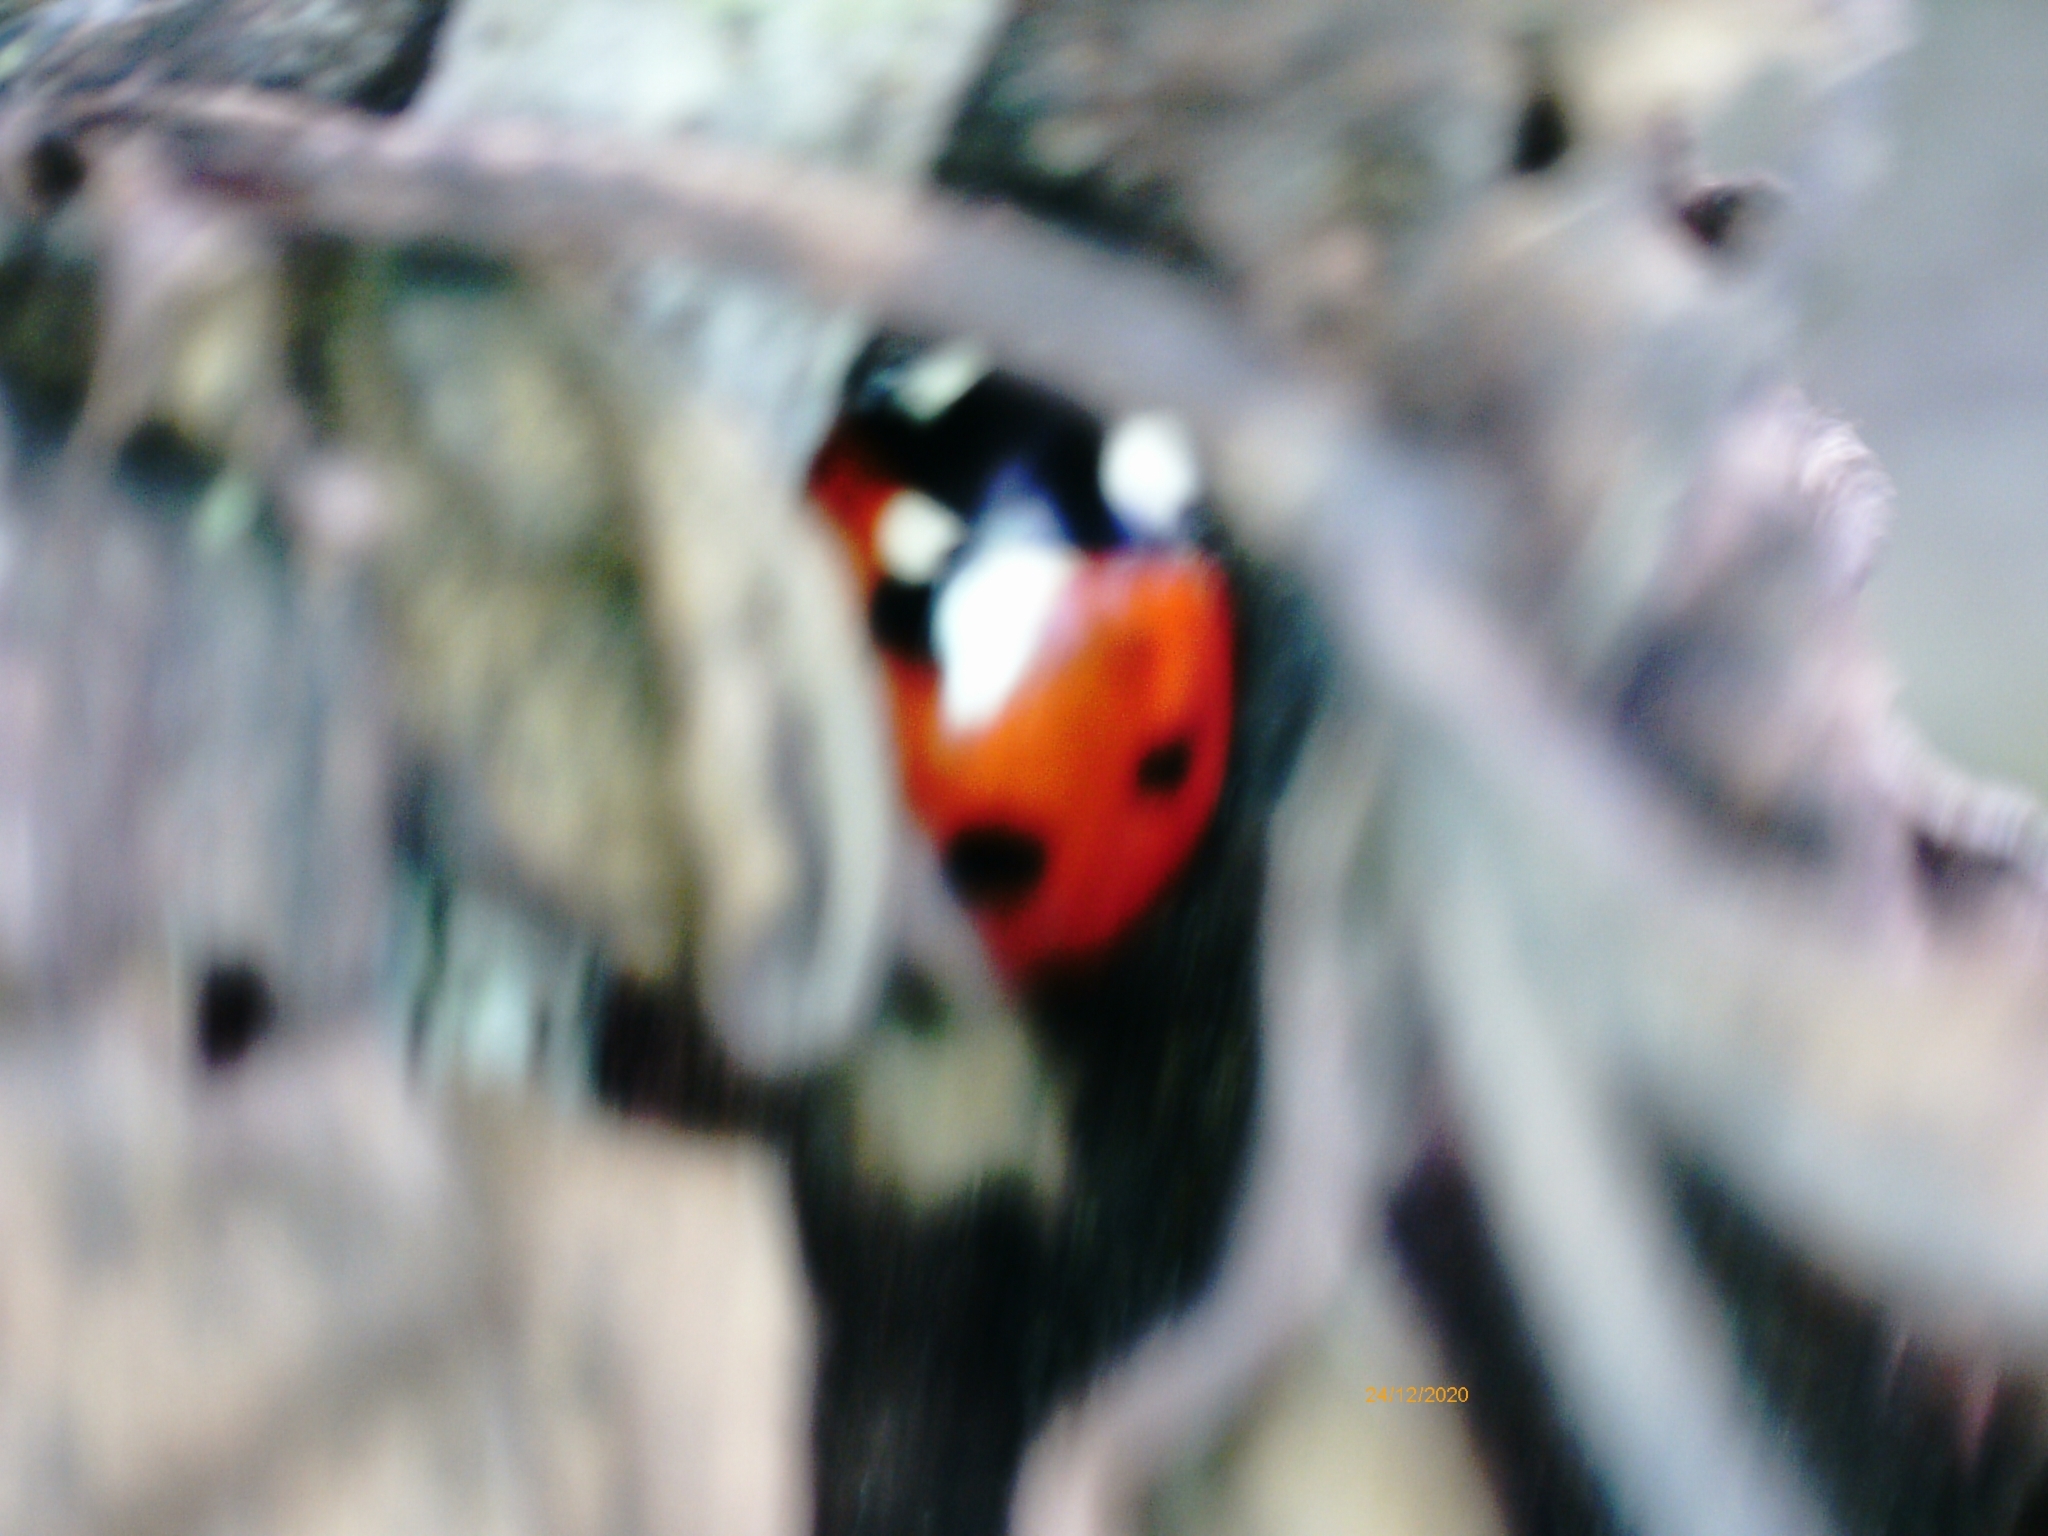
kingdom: Animalia
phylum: Arthropoda
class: Insecta
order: Coleoptera
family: Coccinellidae
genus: Coccinella
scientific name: Coccinella septempunctata
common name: Sevenspotted lady beetle
